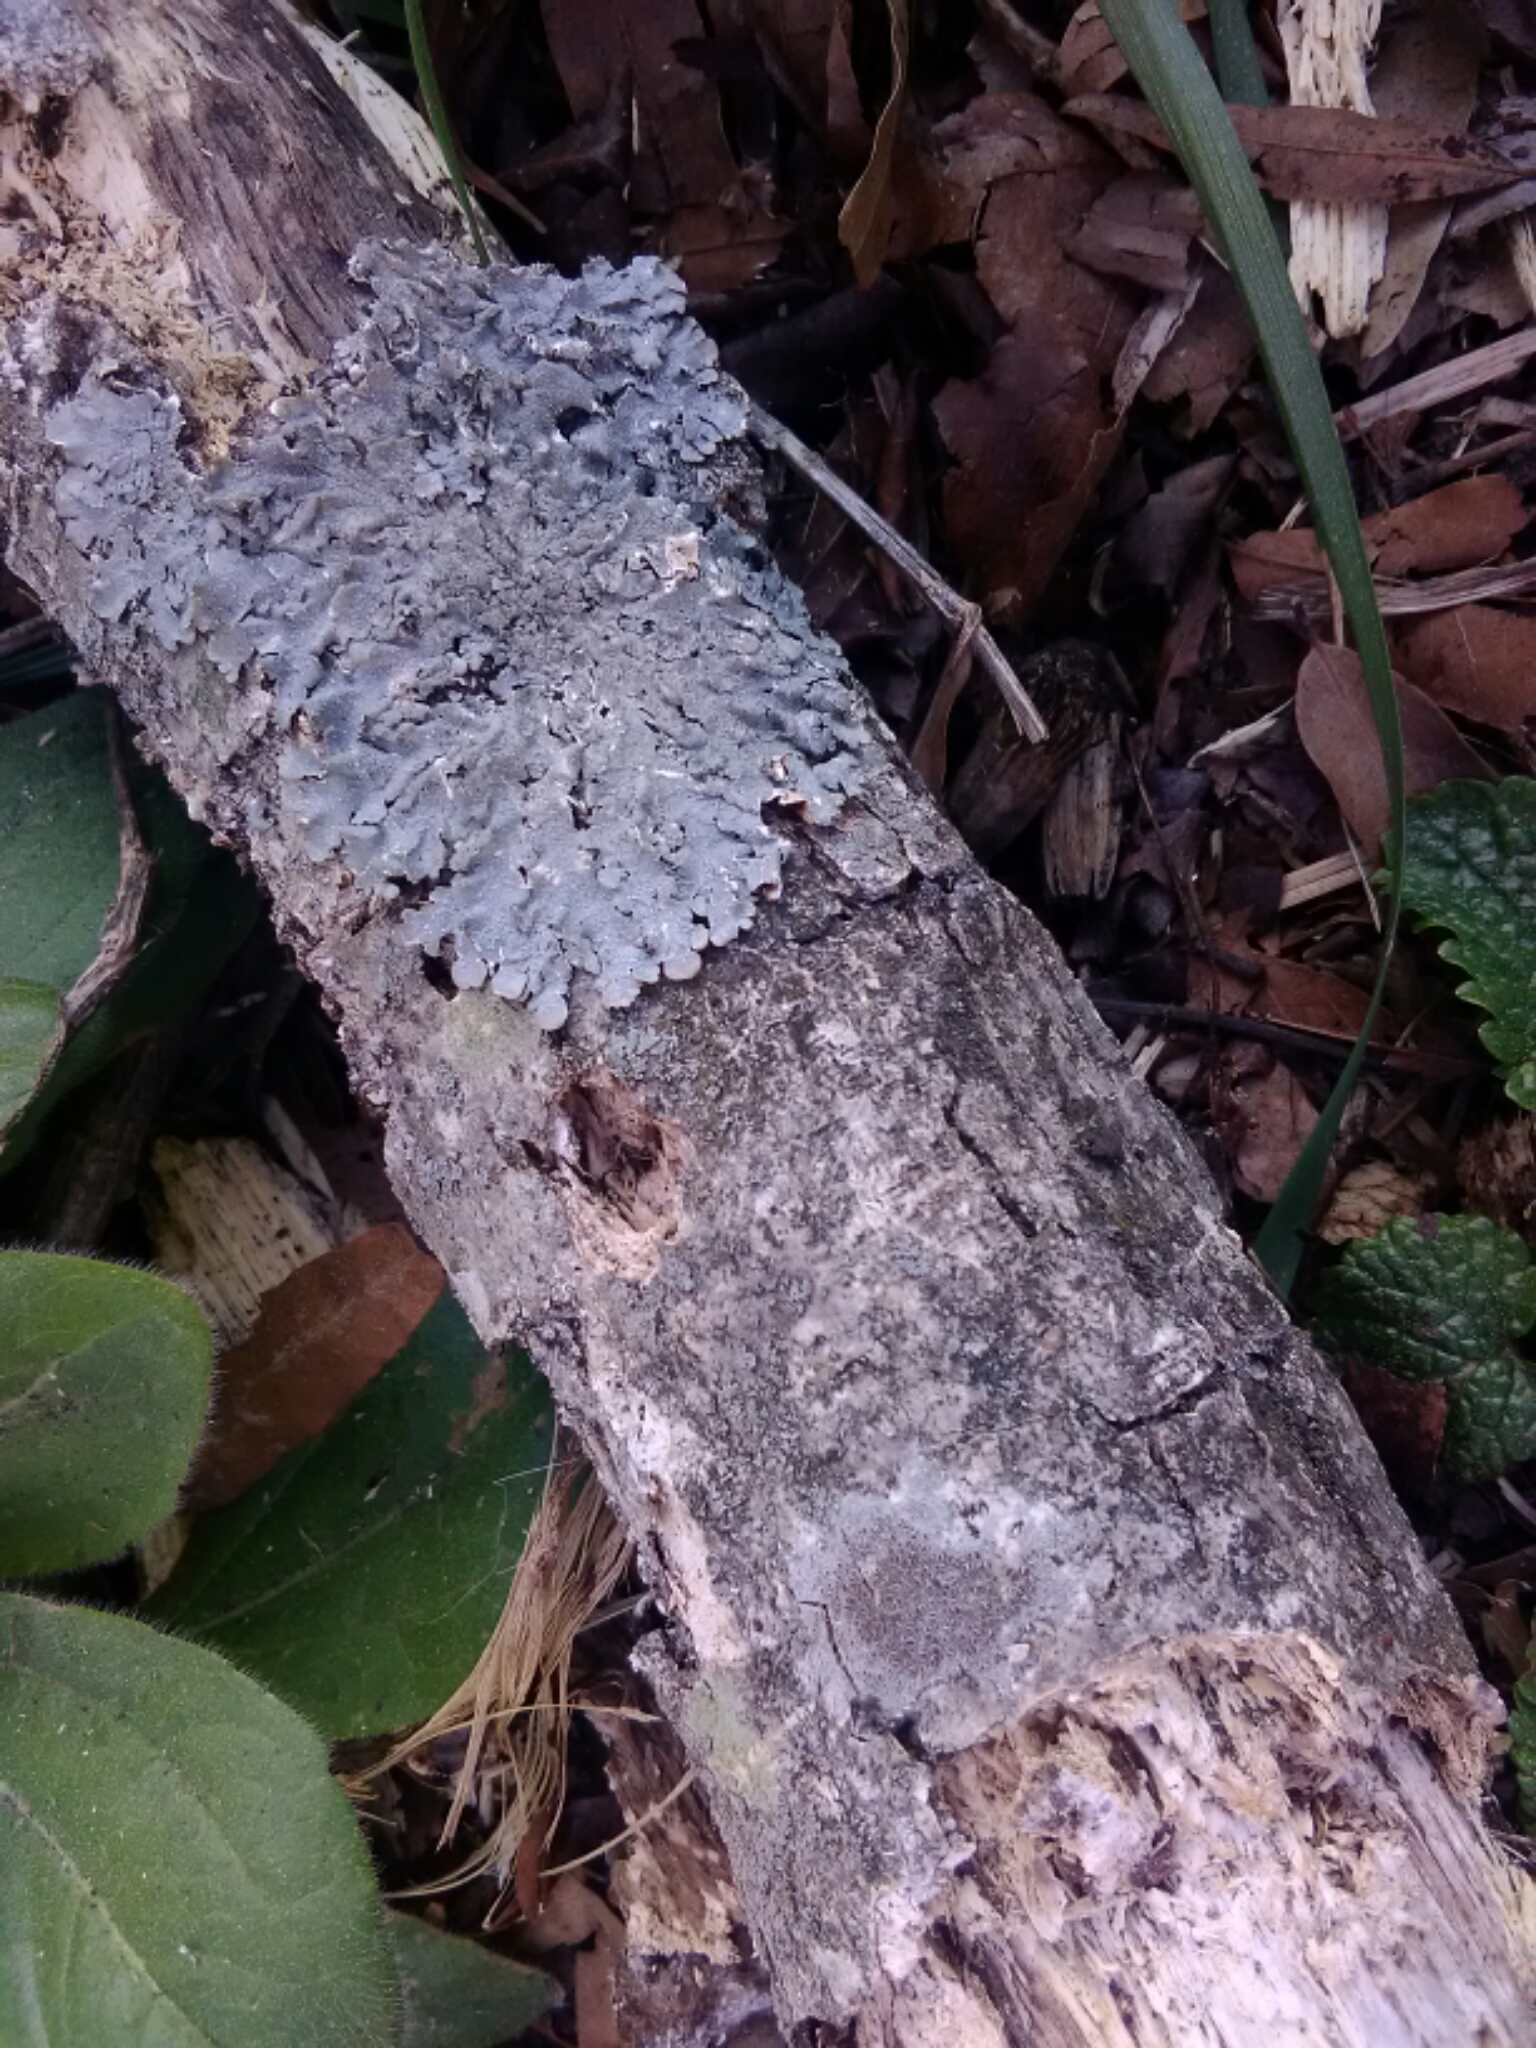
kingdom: Fungi
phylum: Ascomycota
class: Lecanoromycetes
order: Lecanorales
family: Parmeliaceae
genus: Punctelia
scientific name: Punctelia rudecta
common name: Rough speckled shield lichen
